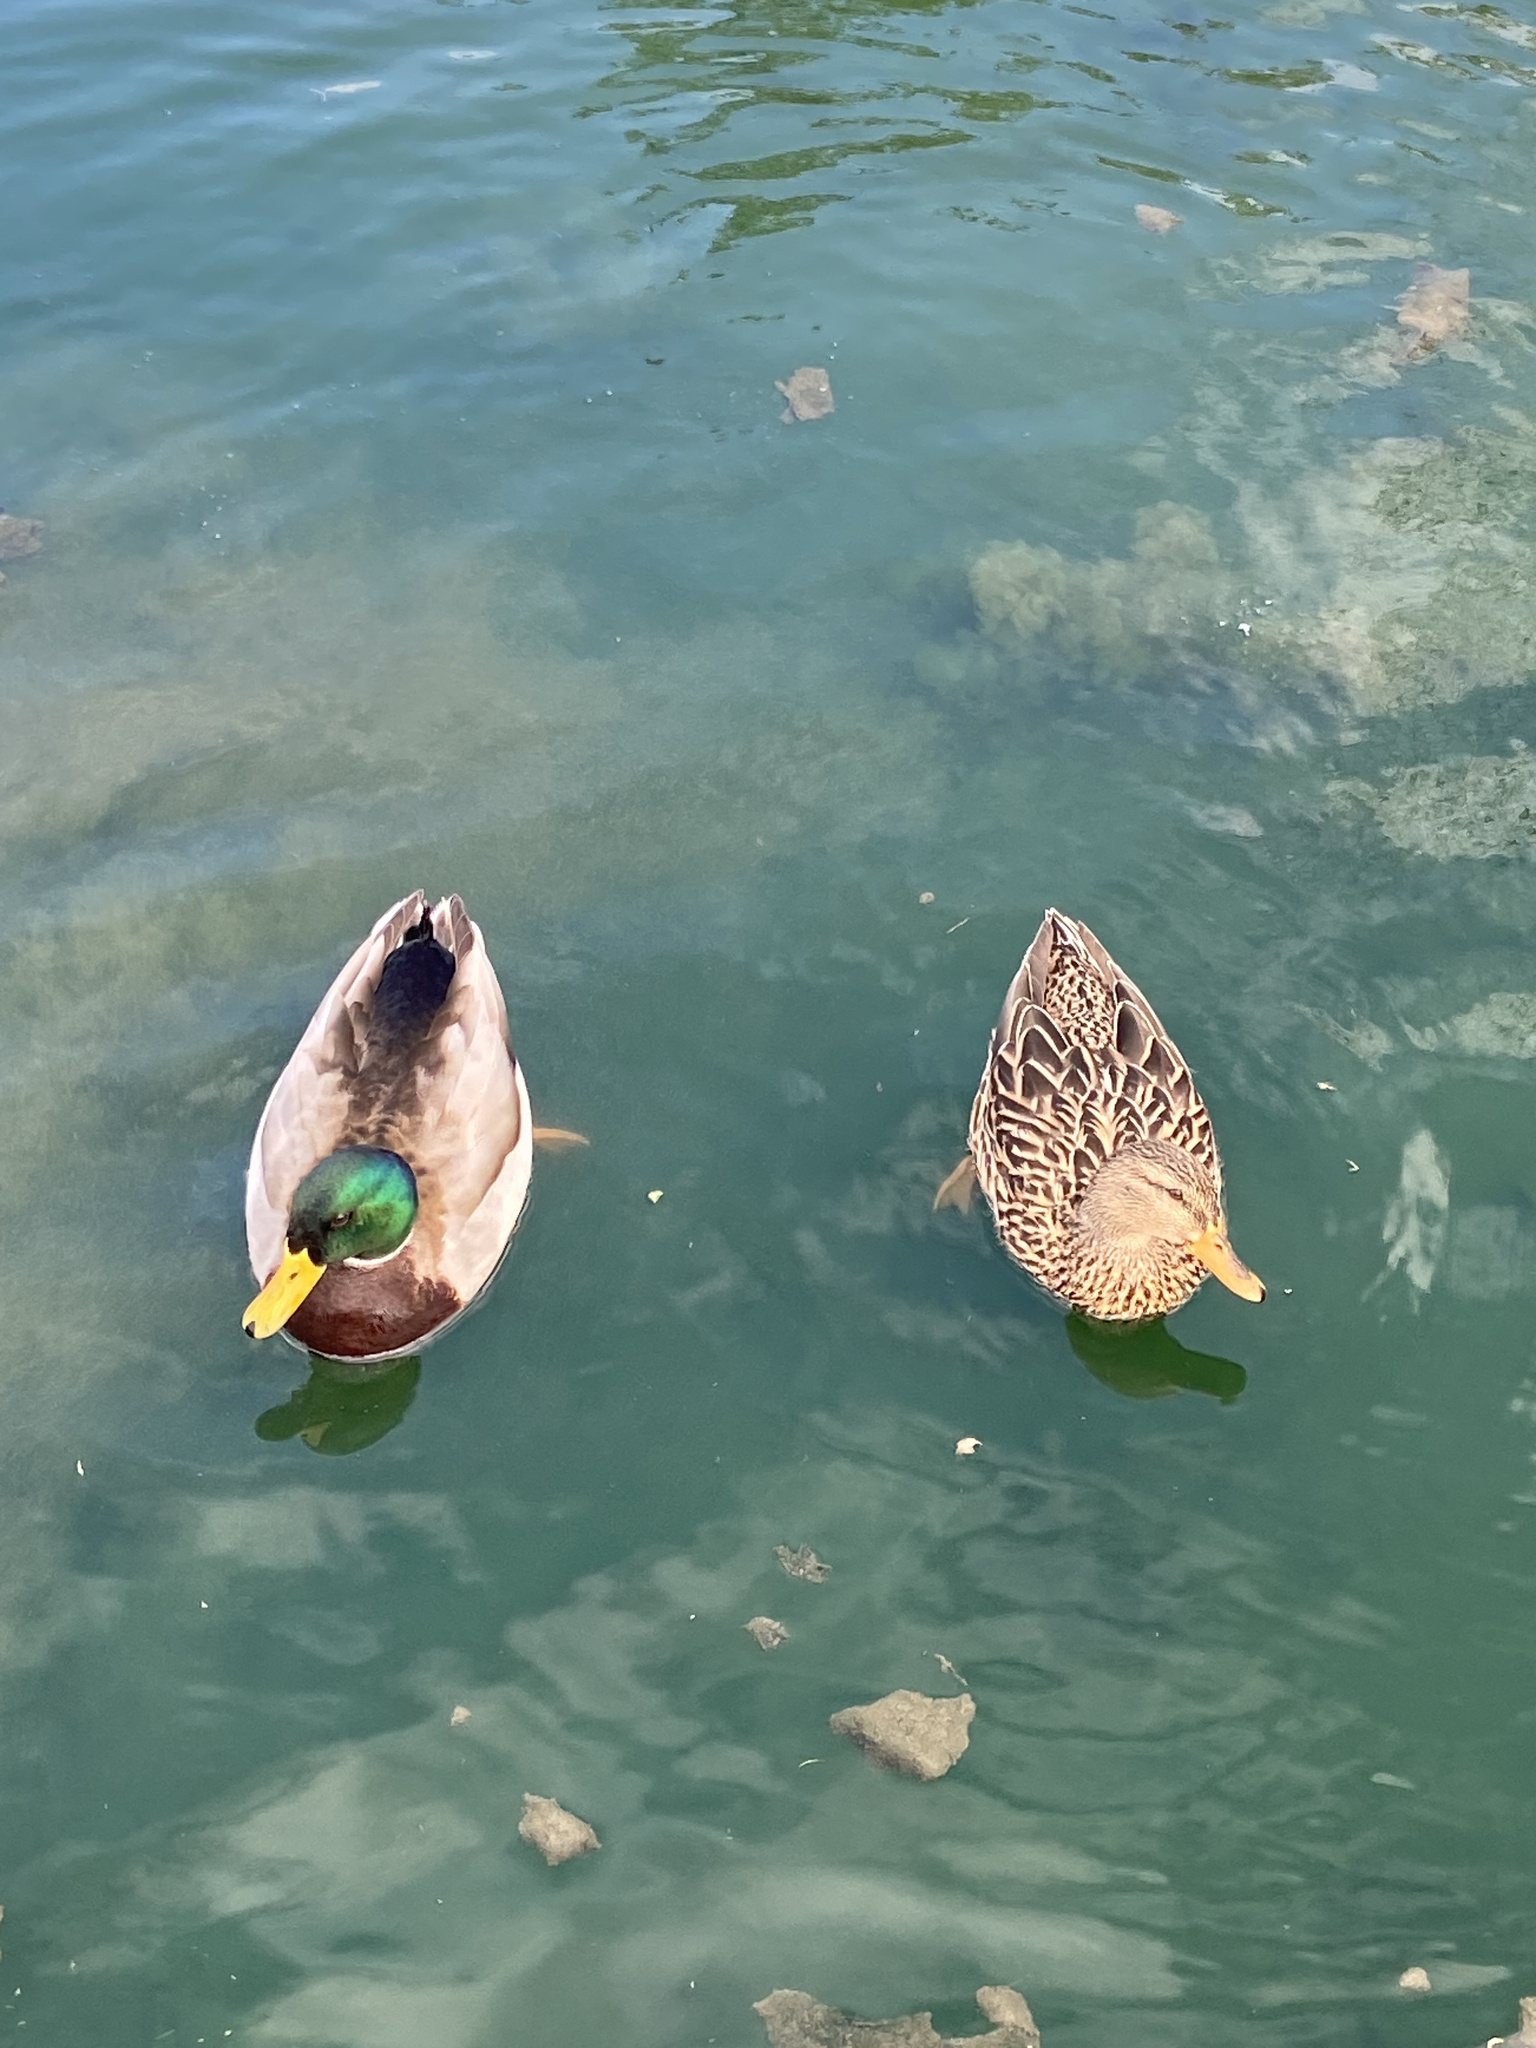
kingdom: Animalia
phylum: Chordata
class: Aves
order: Anseriformes
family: Anatidae
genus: Anas
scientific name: Anas platyrhynchos
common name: Mallard
